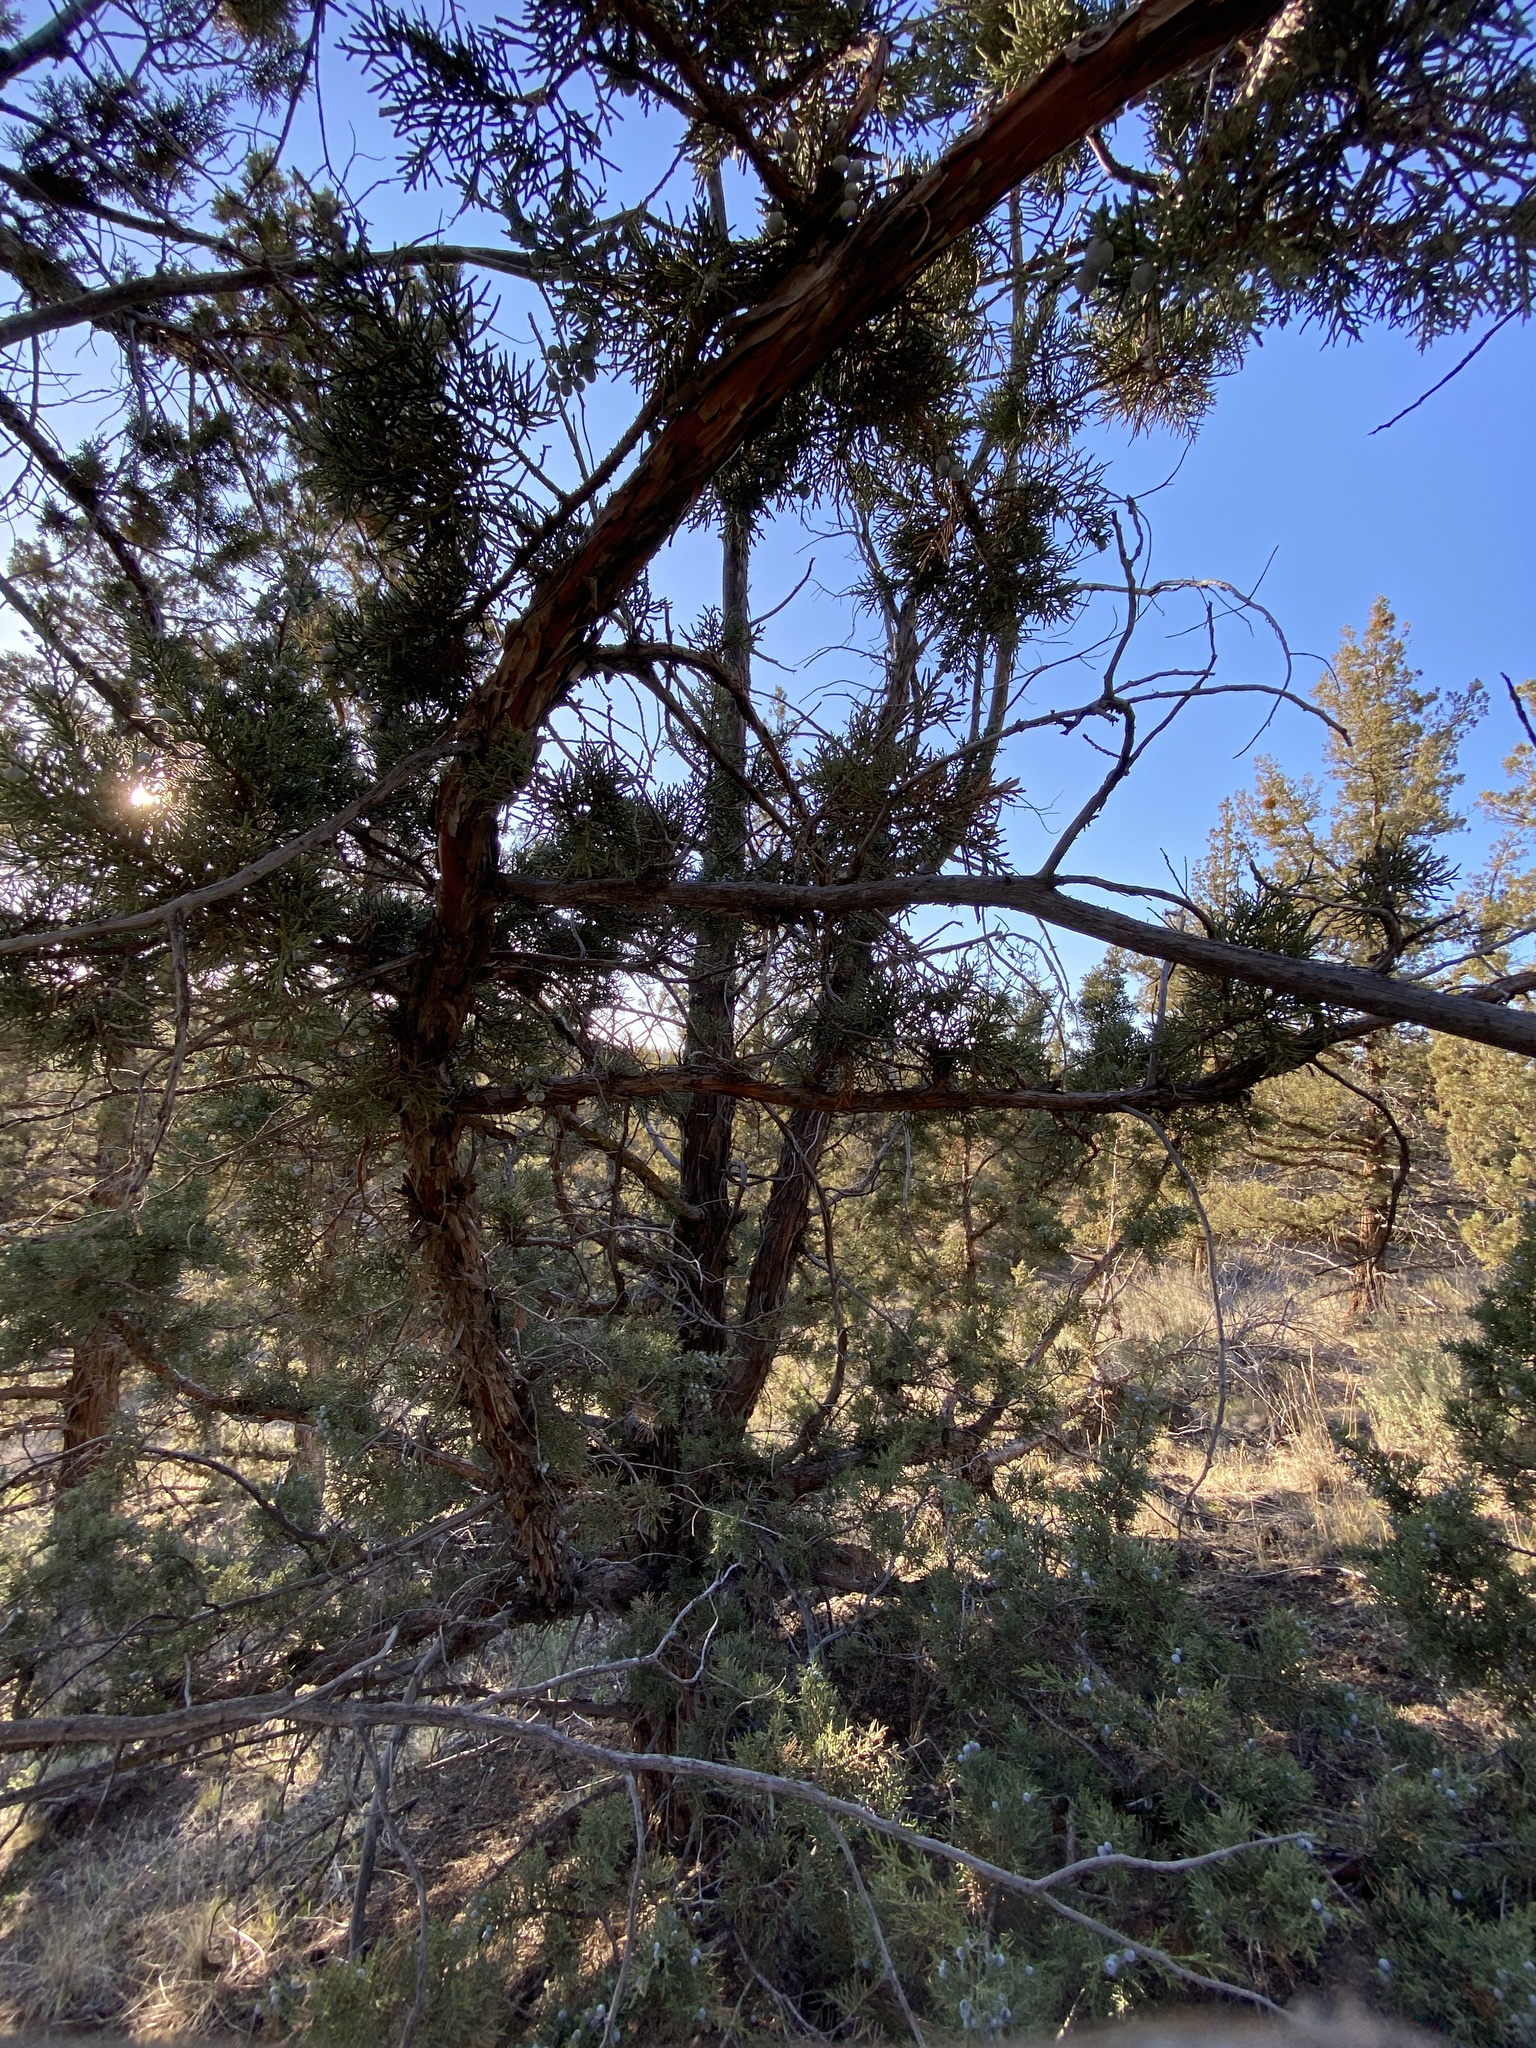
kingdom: Plantae
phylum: Tracheophyta
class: Pinopsida
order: Pinales
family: Cupressaceae
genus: Juniperus
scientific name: Juniperus occidentalis
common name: Western juniper
